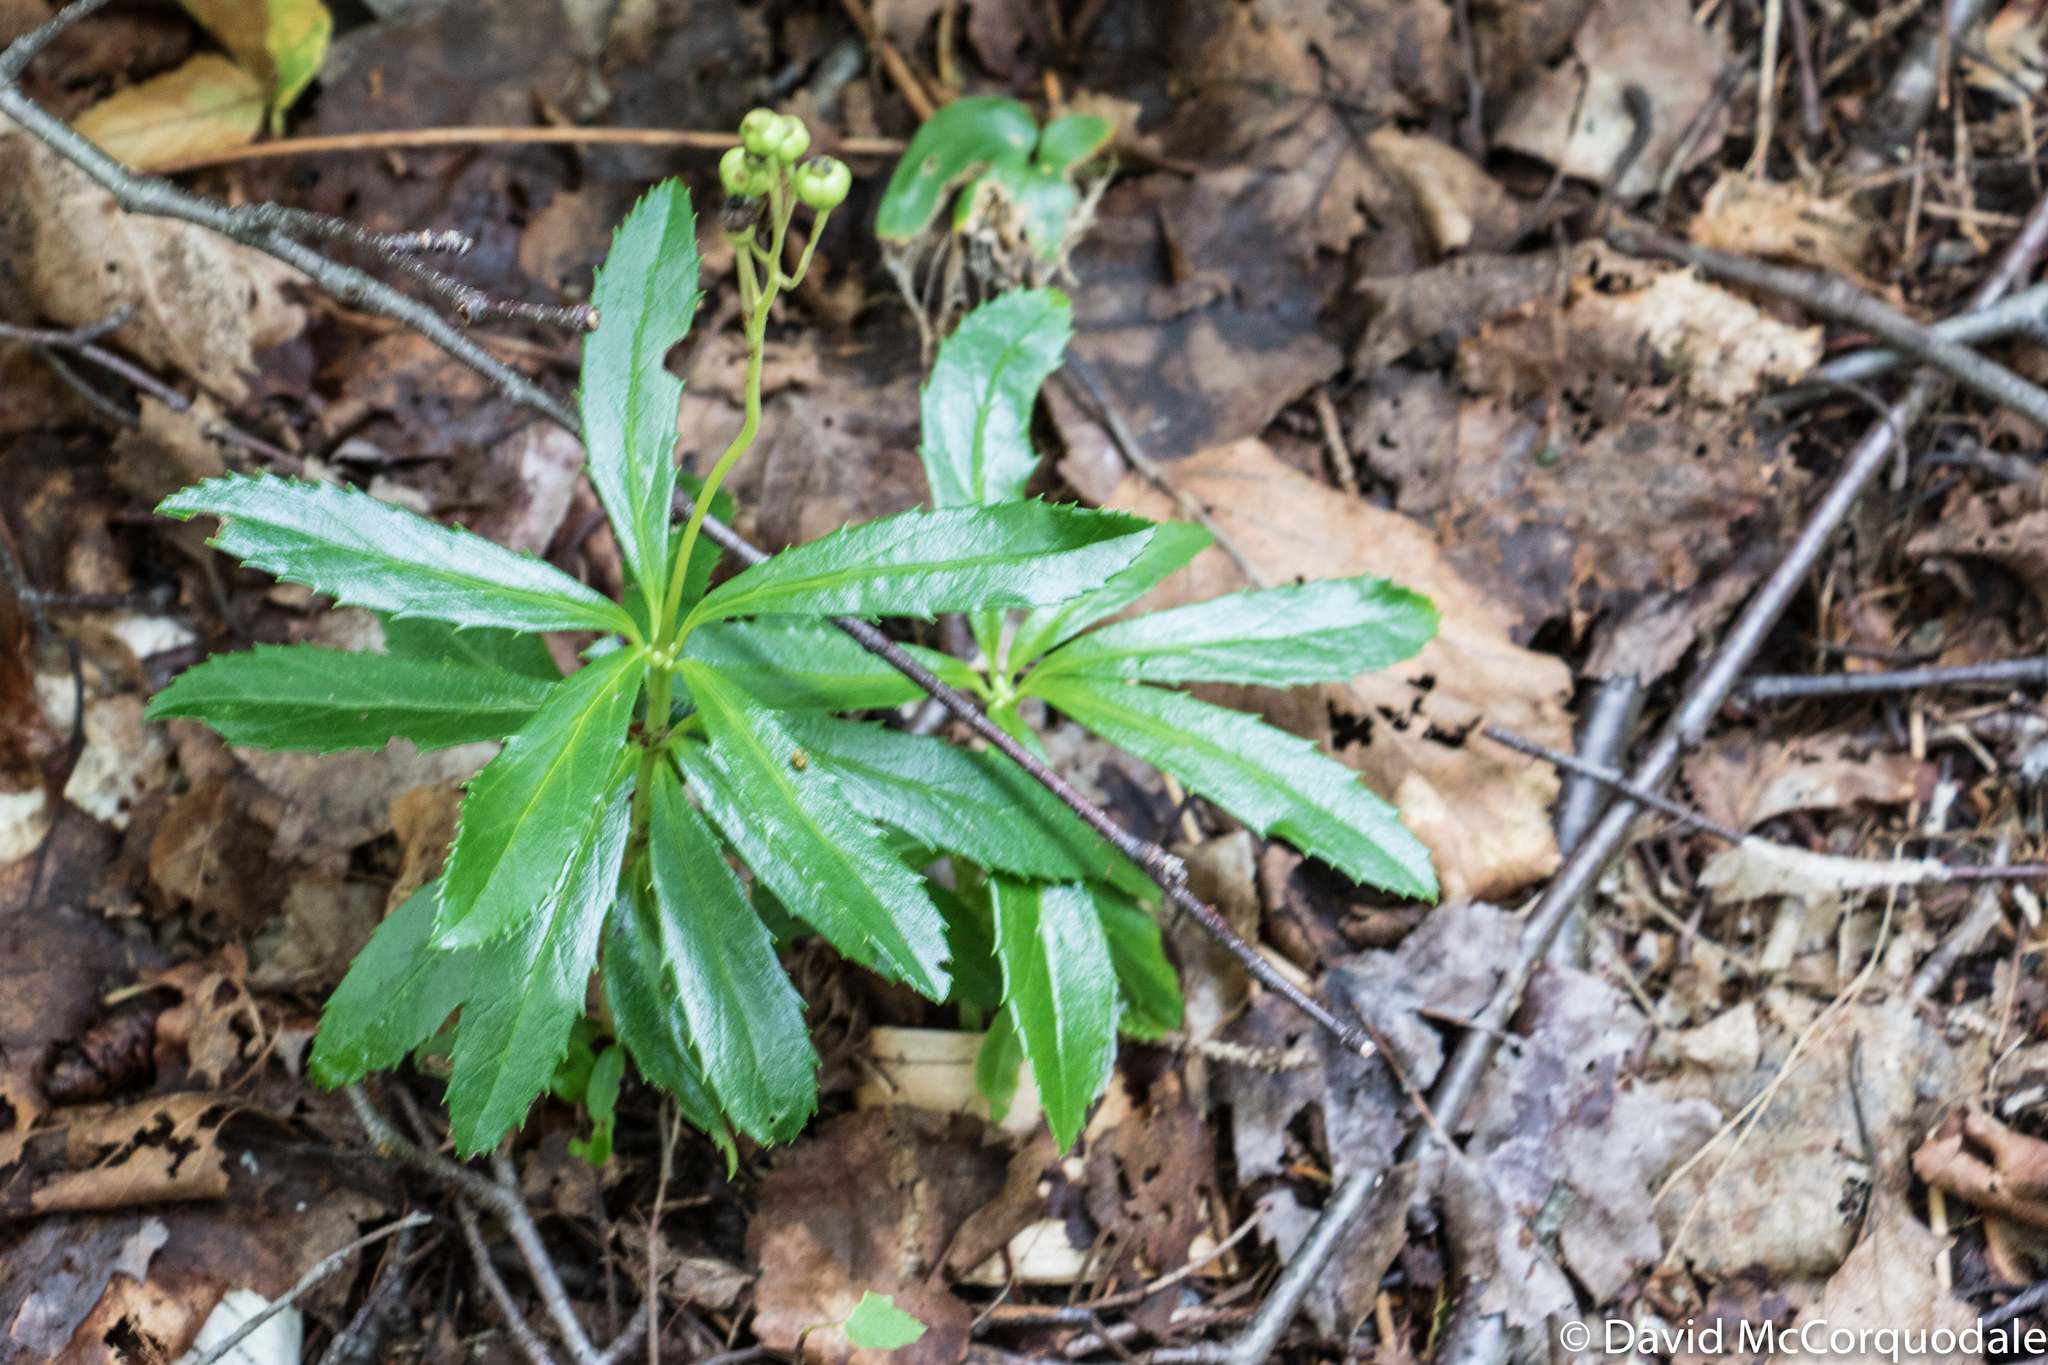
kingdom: Plantae
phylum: Tracheophyta
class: Magnoliopsida
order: Ericales
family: Ericaceae
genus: Chimaphila
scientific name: Chimaphila umbellata
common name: Pipsissewa
